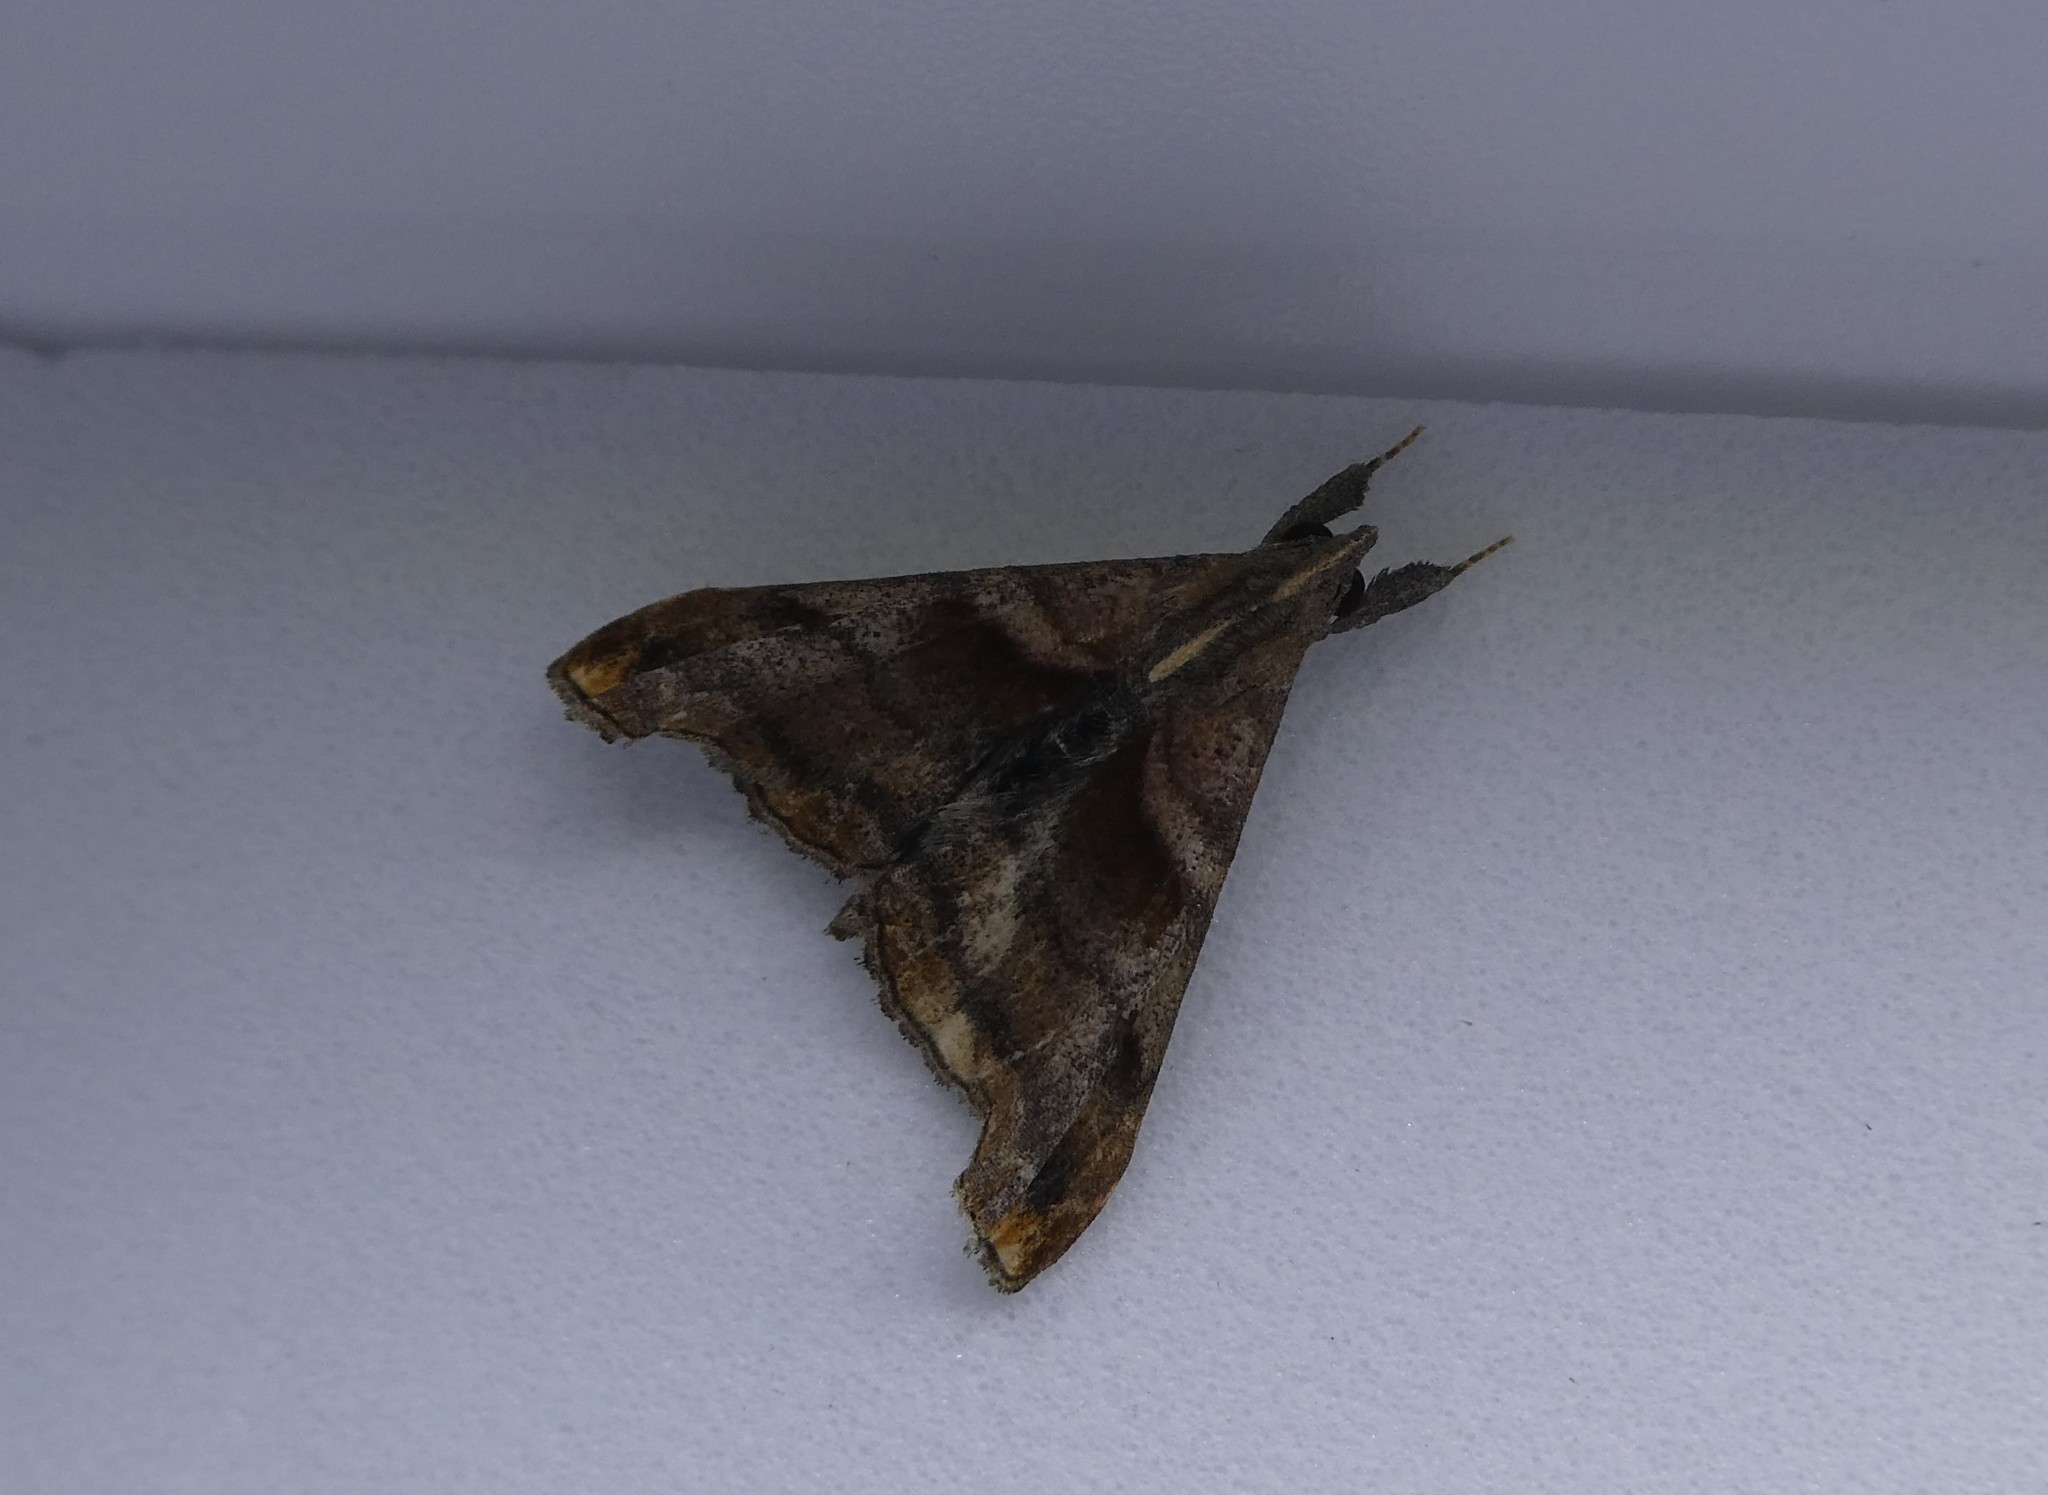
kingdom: Animalia
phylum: Arthropoda
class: Insecta
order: Lepidoptera
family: Erebidae
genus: Palthis
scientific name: Palthis angulalis
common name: Dark-spotted palthis moth
